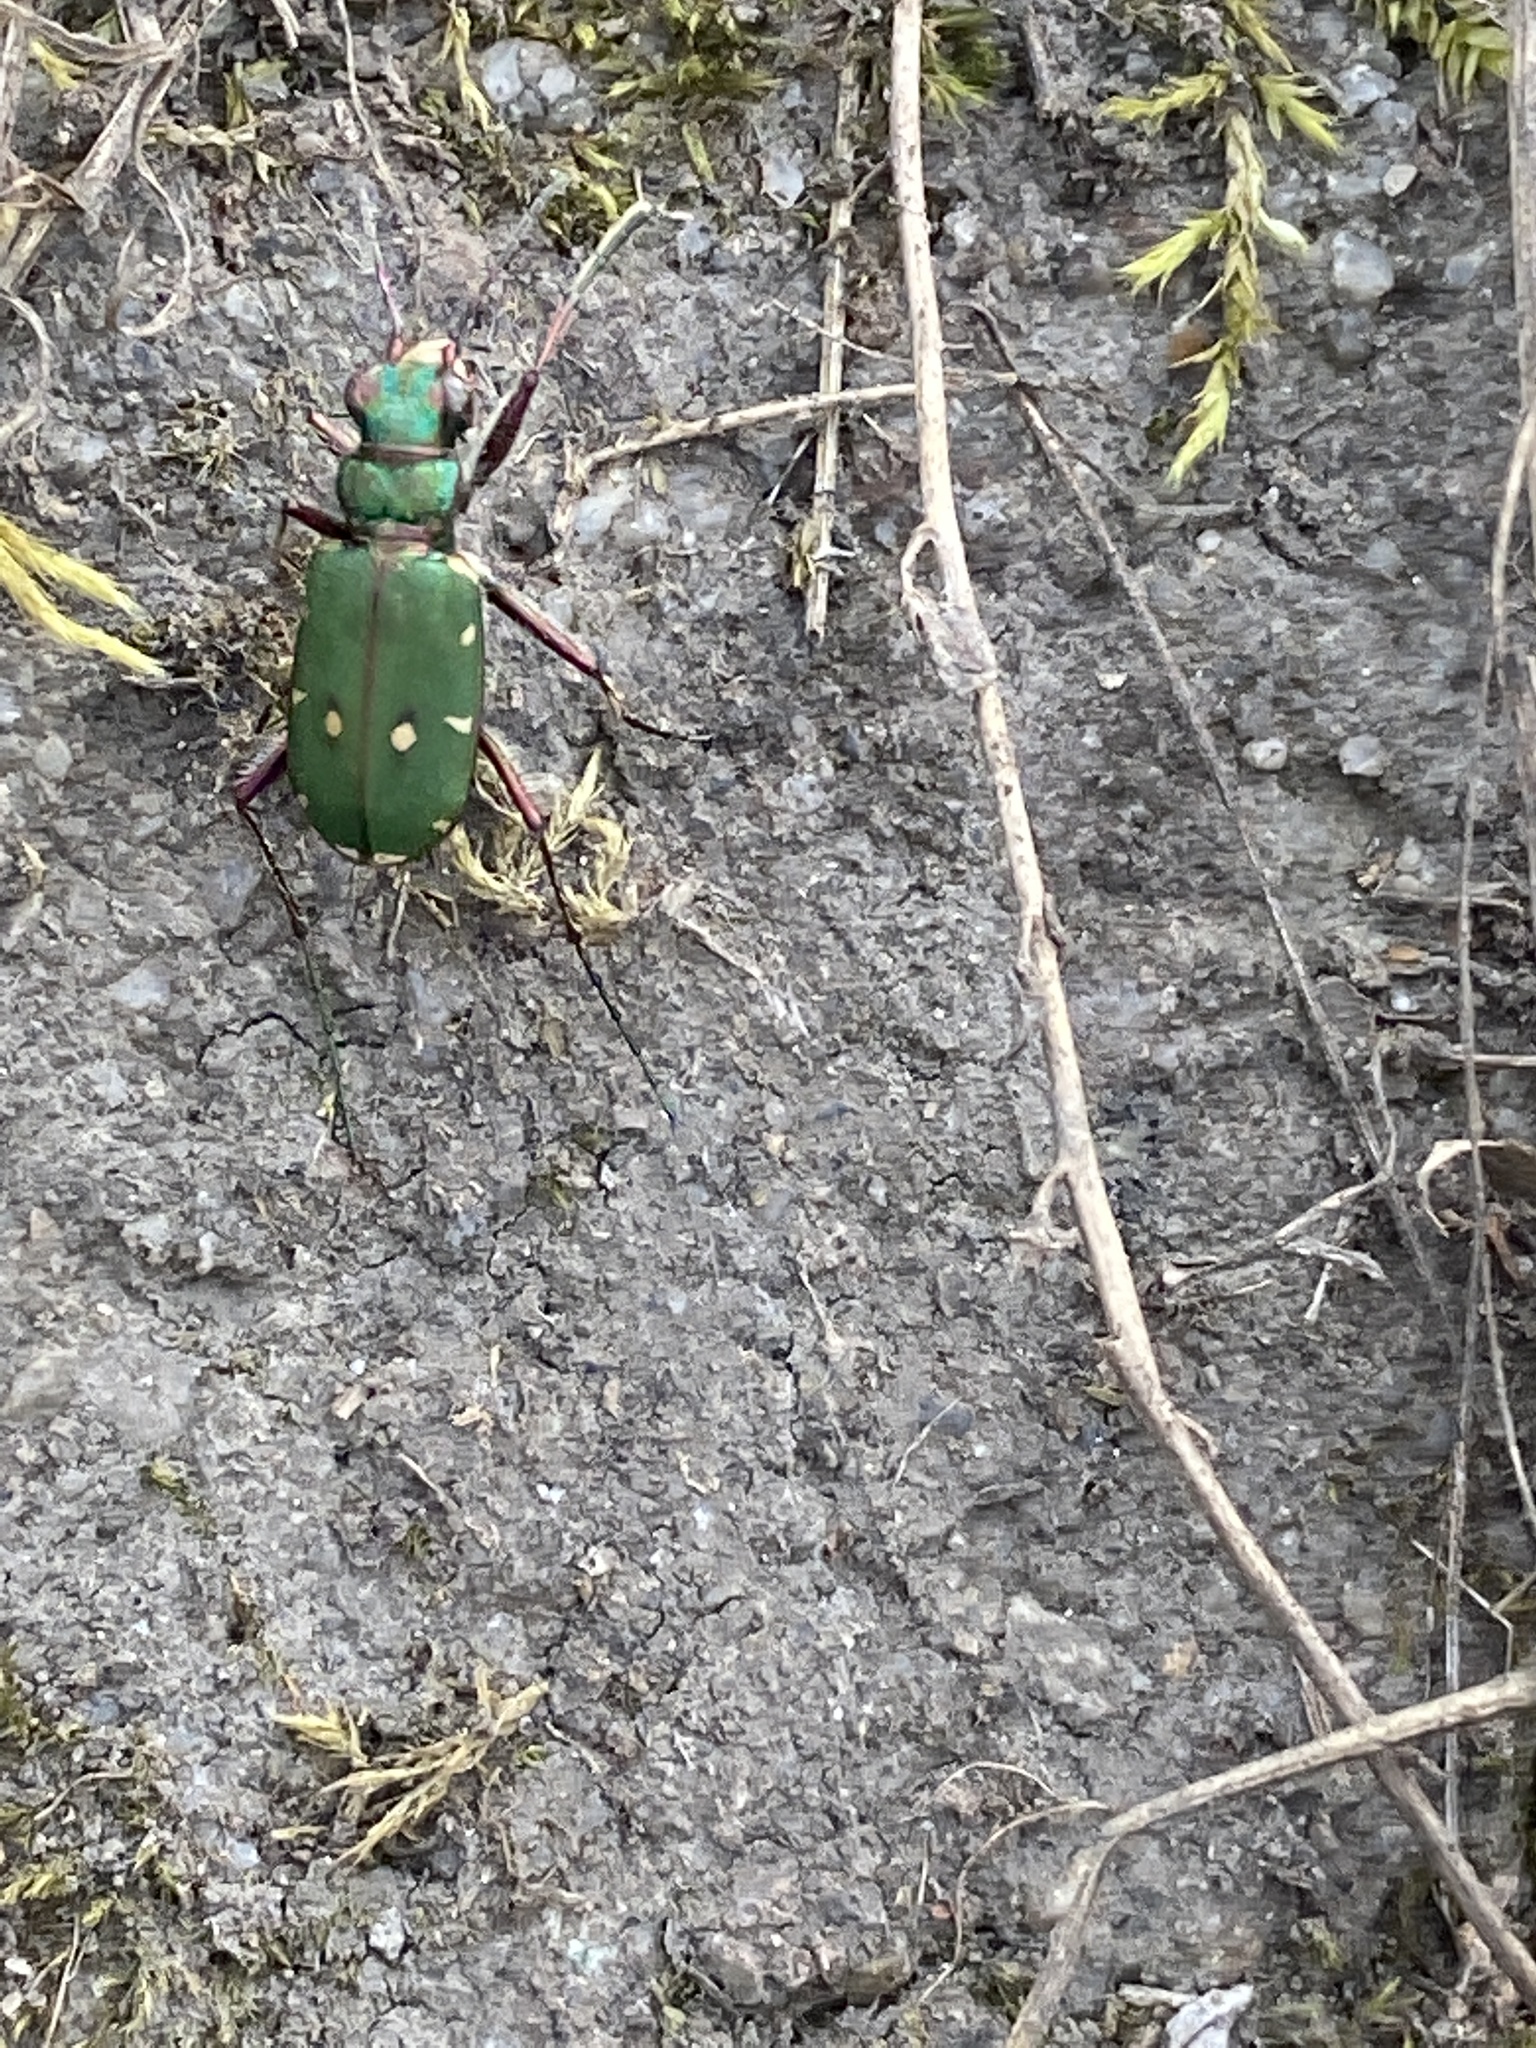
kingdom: Animalia
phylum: Arthropoda
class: Insecta
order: Coleoptera
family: Carabidae
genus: Cicindela
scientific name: Cicindela campestris
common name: Common tiger beetle
